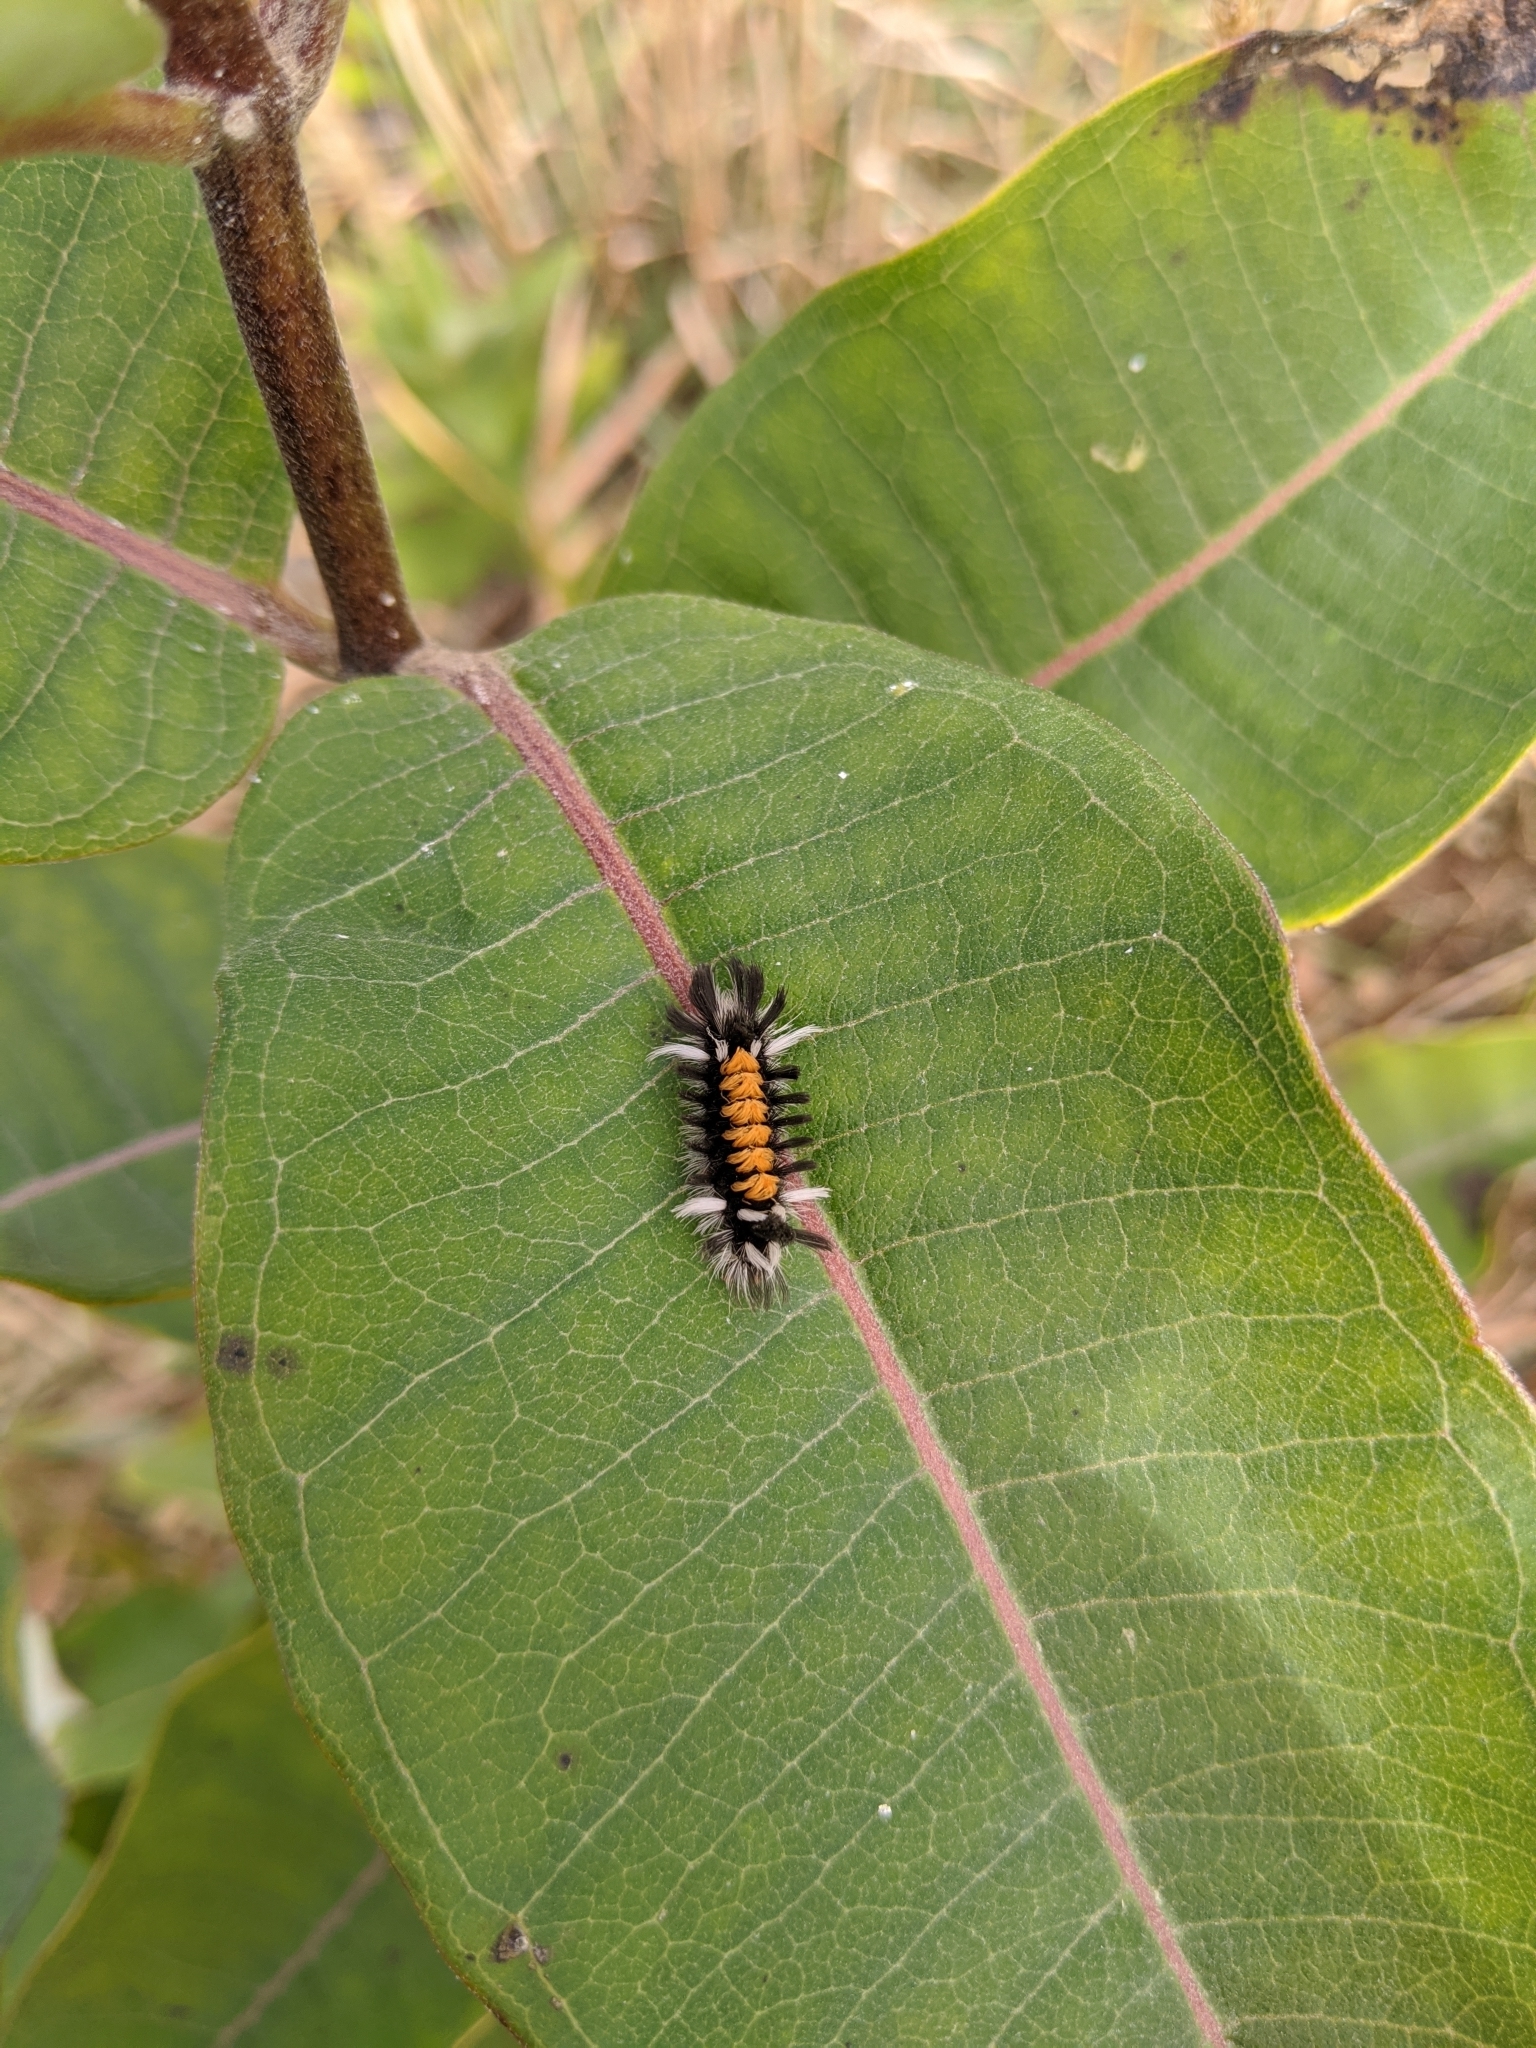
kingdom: Animalia
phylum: Arthropoda
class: Insecta
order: Lepidoptera
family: Erebidae
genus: Euchaetes
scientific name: Euchaetes egle
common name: Milkweed tussock moth
